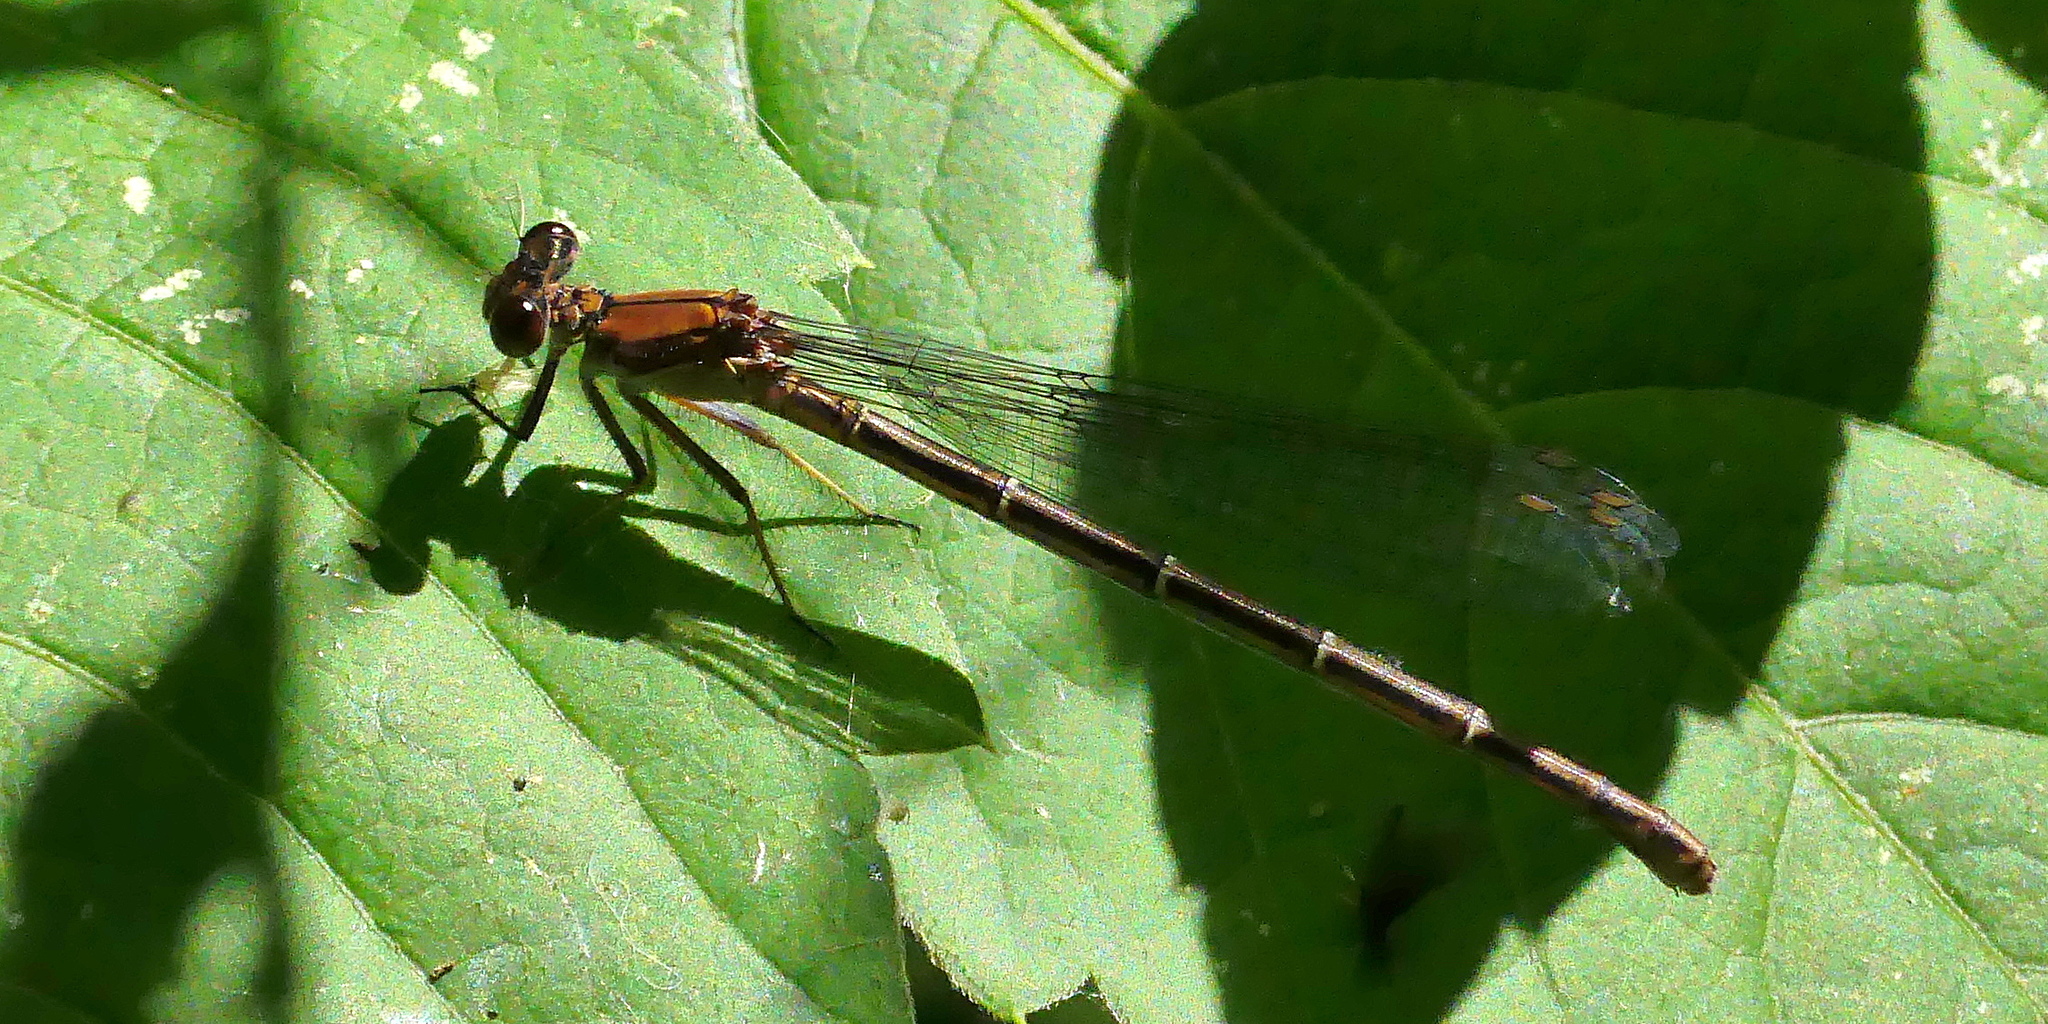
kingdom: Animalia
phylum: Arthropoda
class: Insecta
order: Odonata
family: Coenagrionidae
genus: Argia
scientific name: Argia moesta
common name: Powdered dancer
